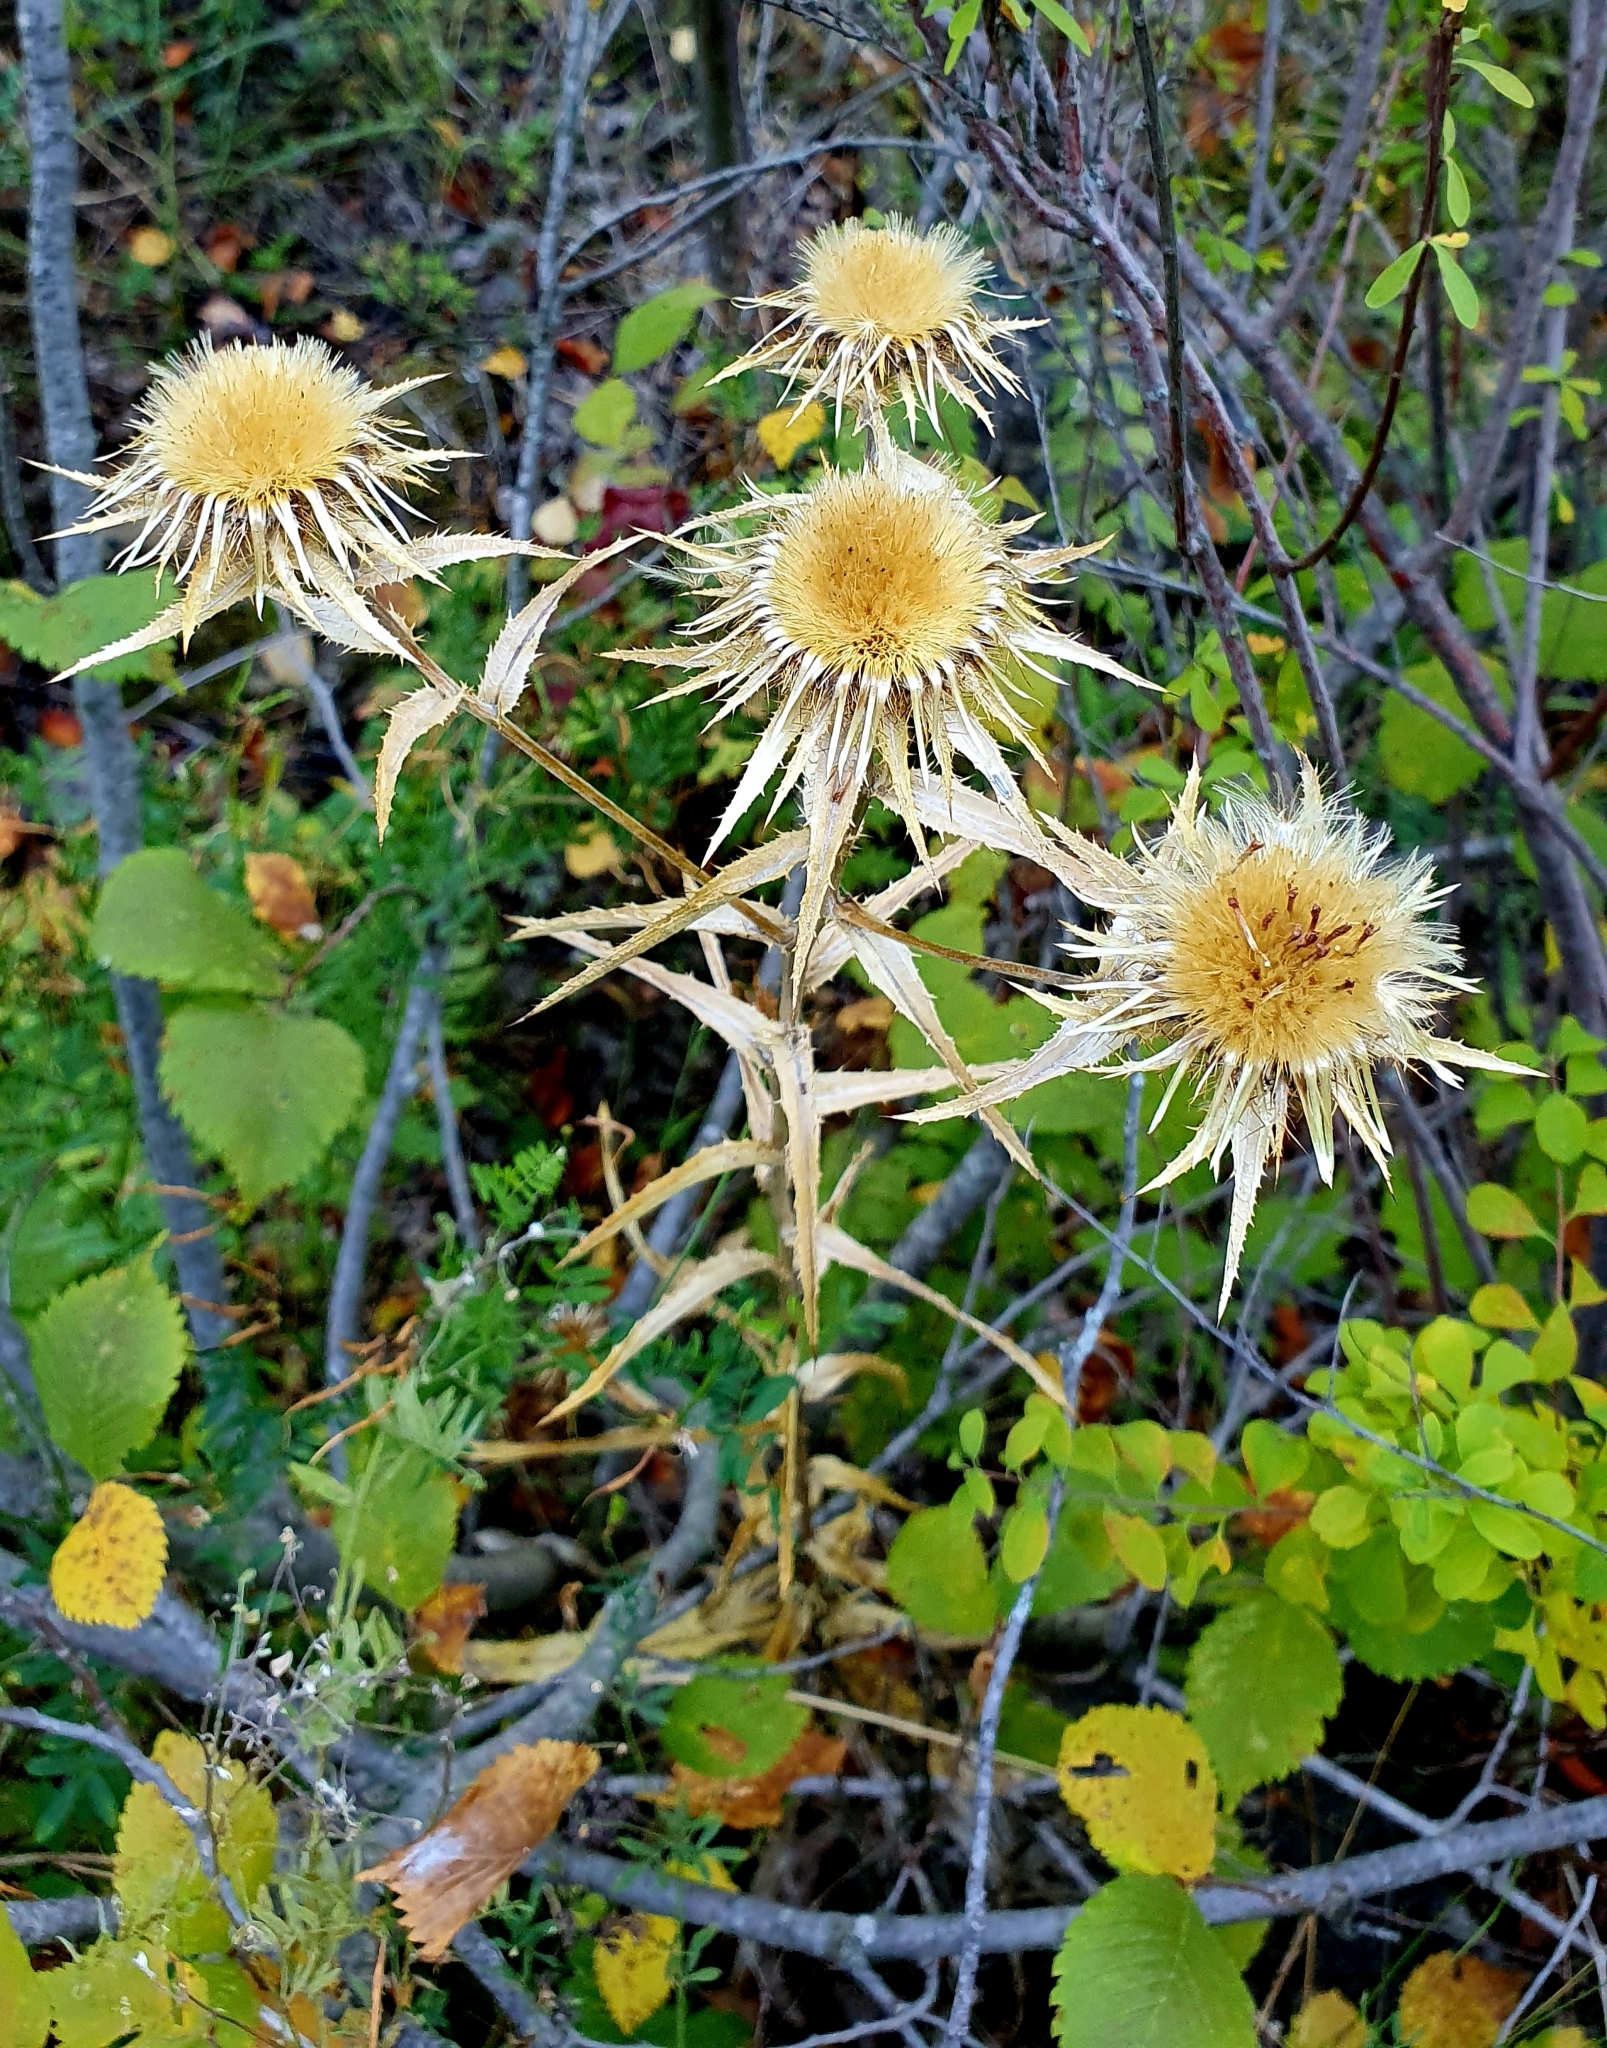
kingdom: Plantae
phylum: Tracheophyta
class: Magnoliopsida
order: Asterales
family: Asteraceae
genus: Carlina
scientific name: Carlina biebersteinii
